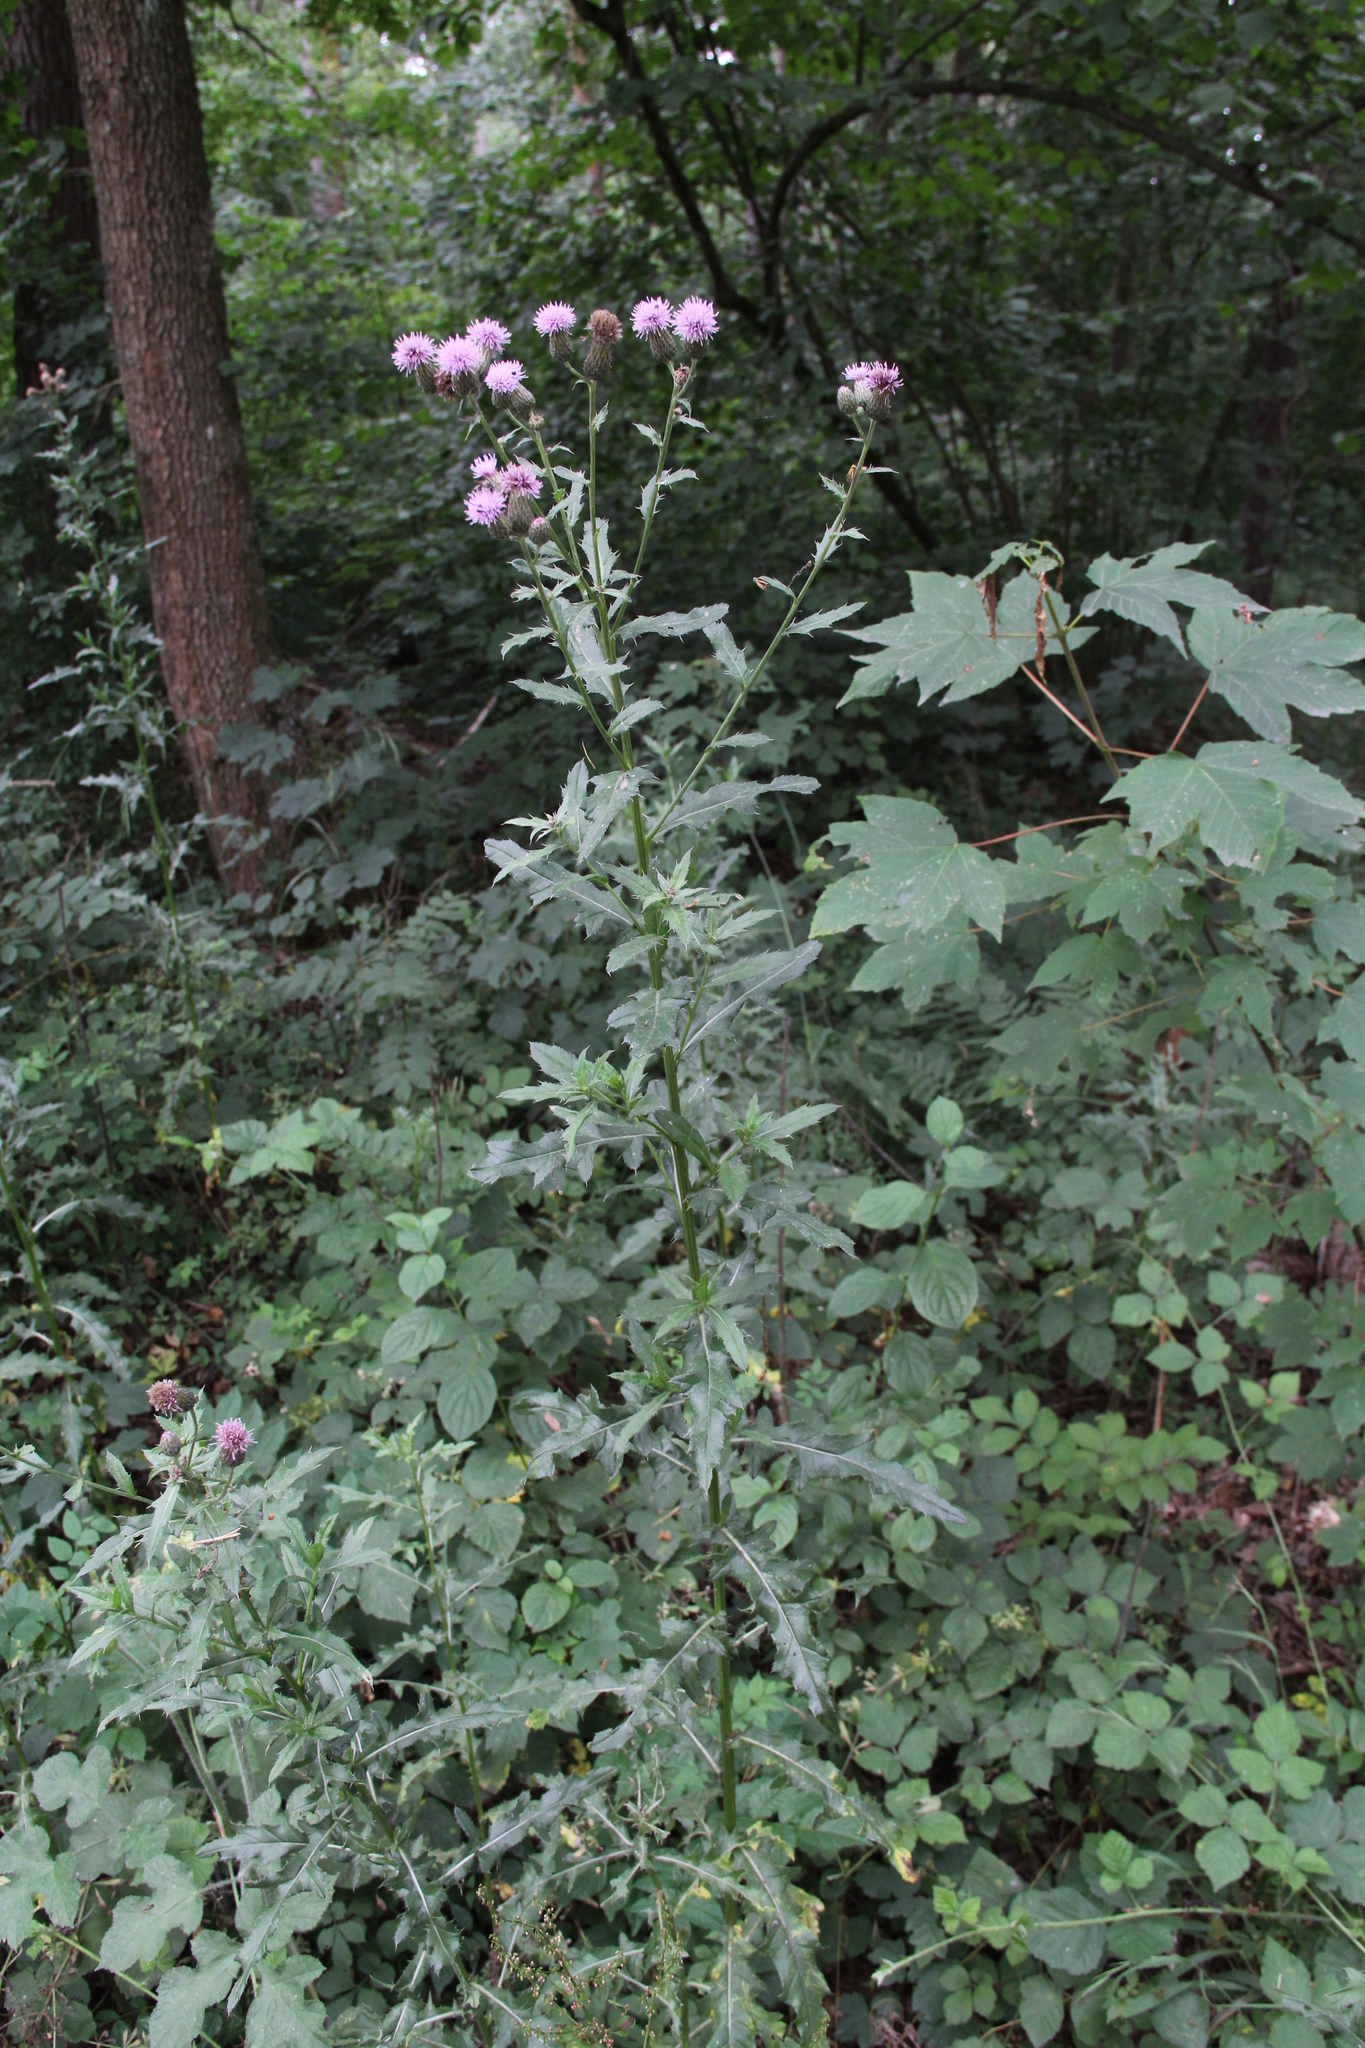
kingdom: Plantae
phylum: Tracheophyta
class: Magnoliopsida
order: Asterales
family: Asteraceae
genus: Cirsium
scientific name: Cirsium arvense
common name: Creeping thistle
